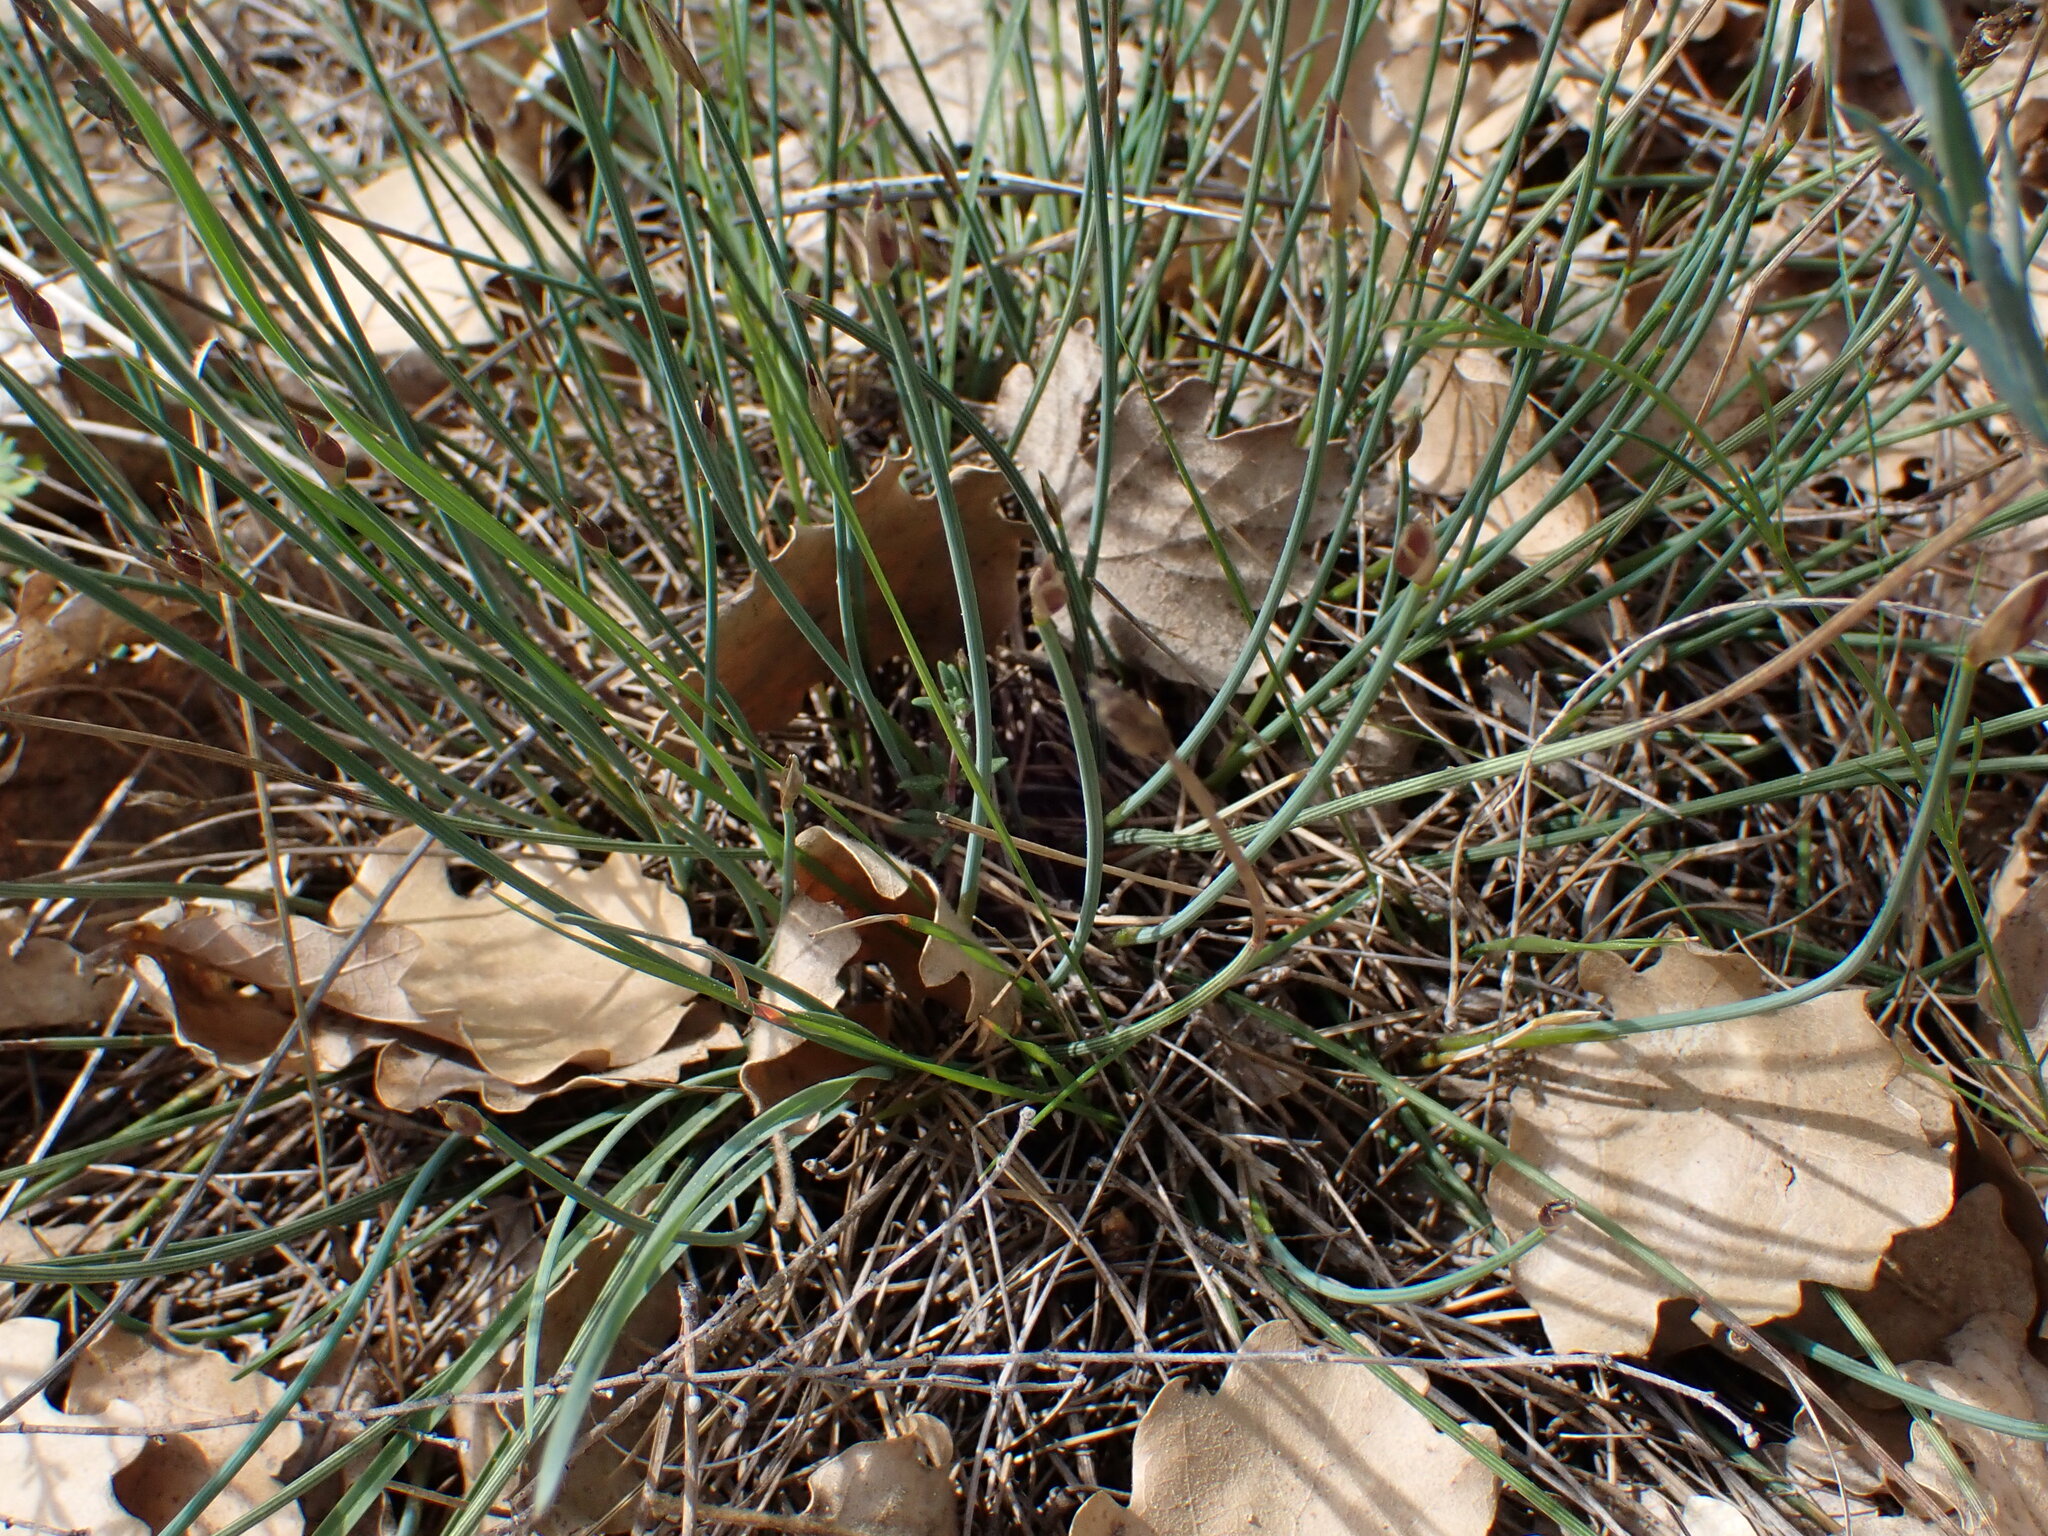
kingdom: Plantae
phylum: Tracheophyta
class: Liliopsida
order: Asparagales
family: Asparagaceae
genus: Aphyllanthes
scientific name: Aphyllanthes monspeliensis
